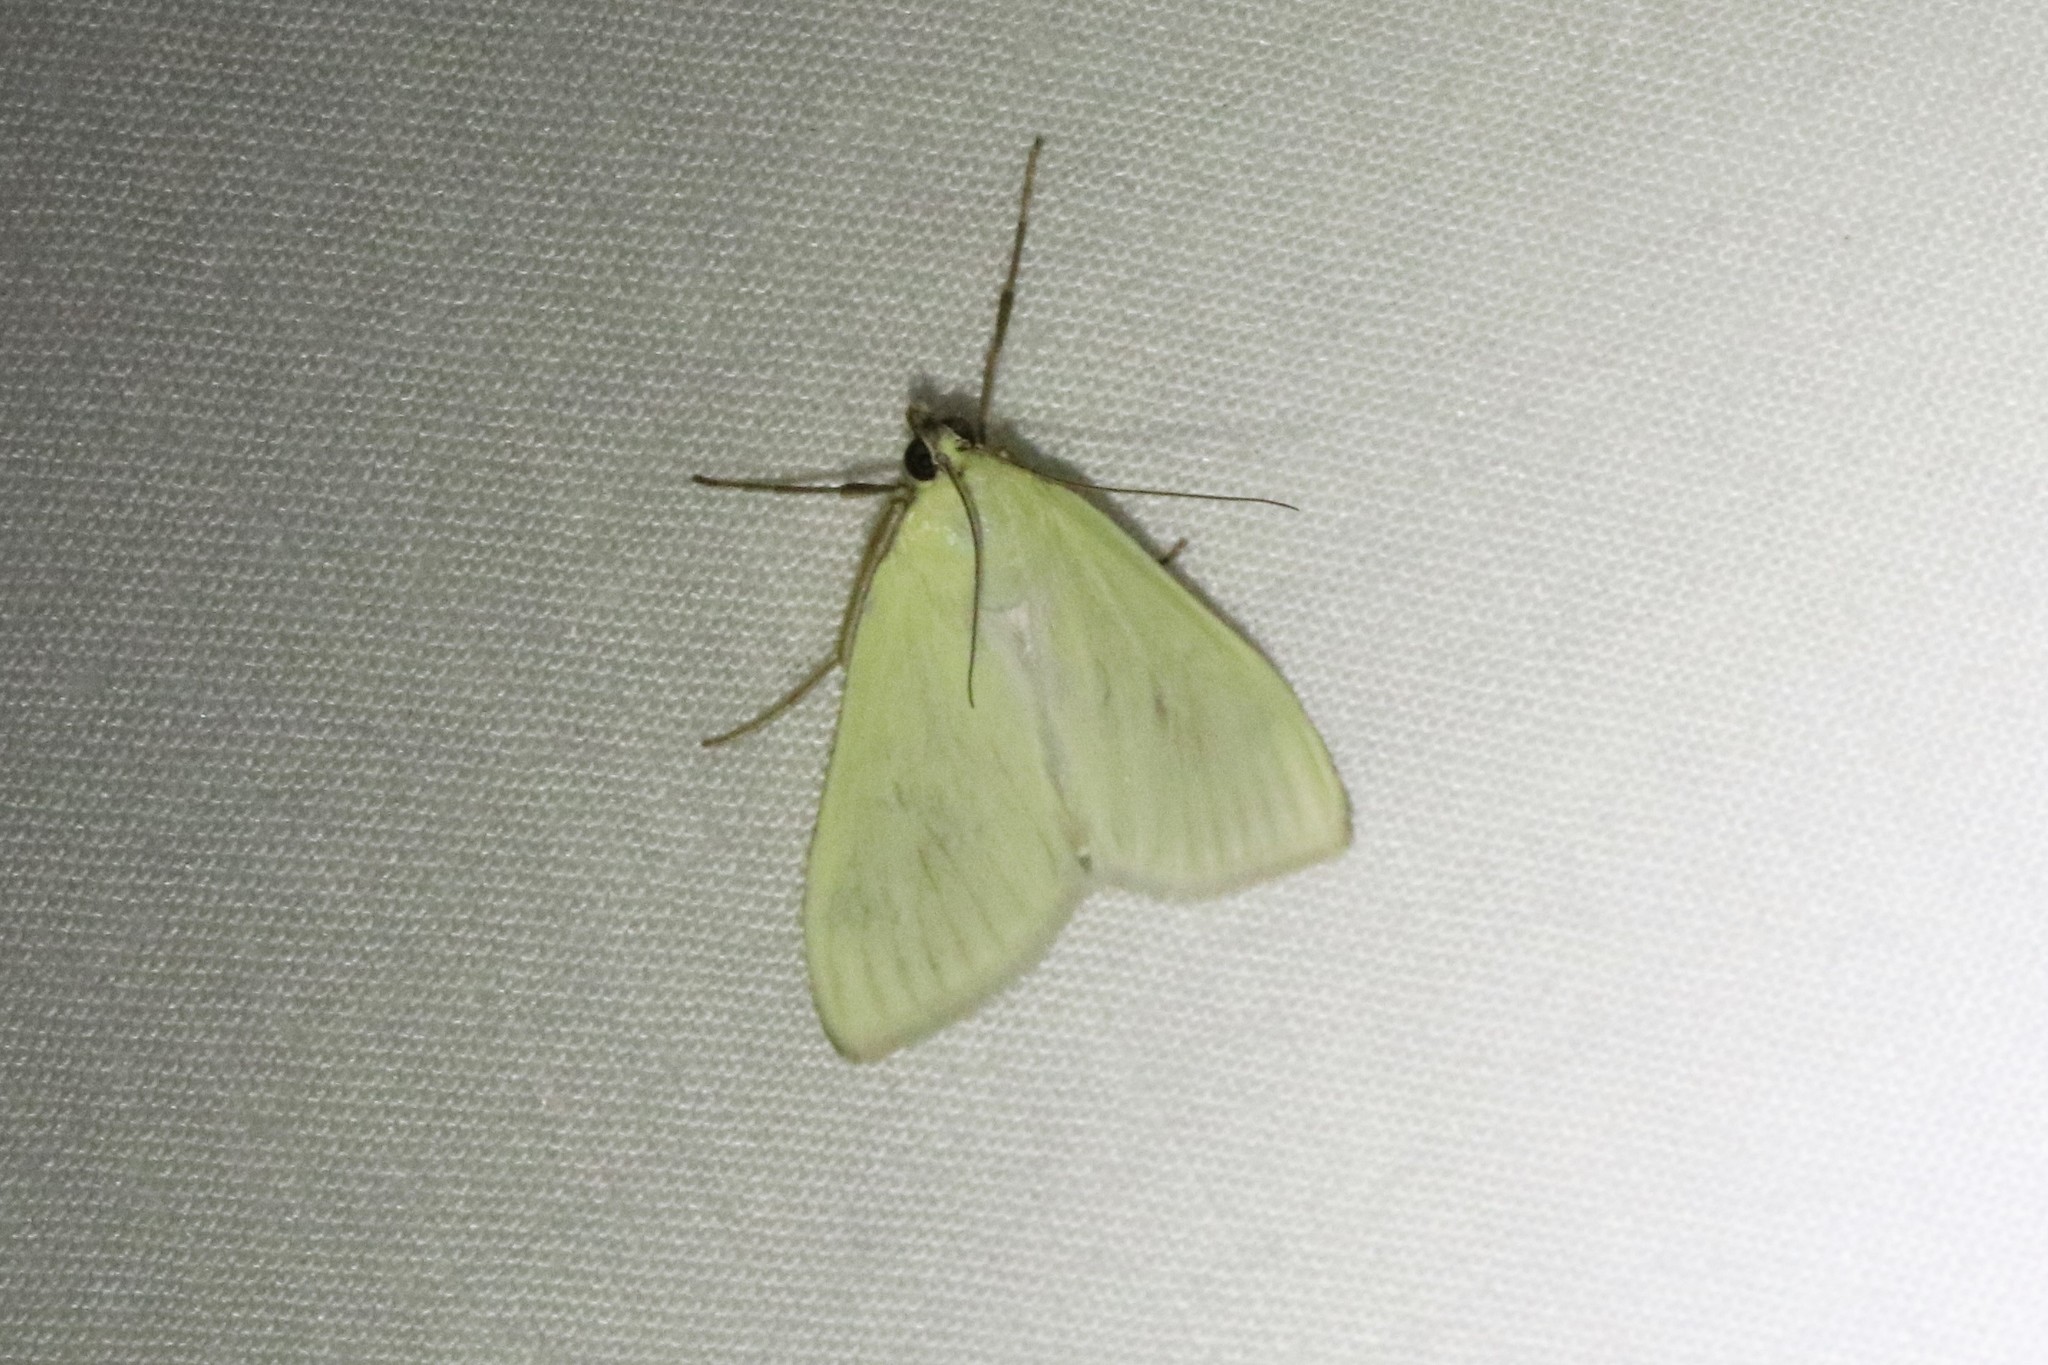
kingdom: Animalia
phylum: Arthropoda
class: Insecta
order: Lepidoptera
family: Crambidae
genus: Sitochroa
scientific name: Sitochroa palealis
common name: Greenish-yellow sitochroa moth
